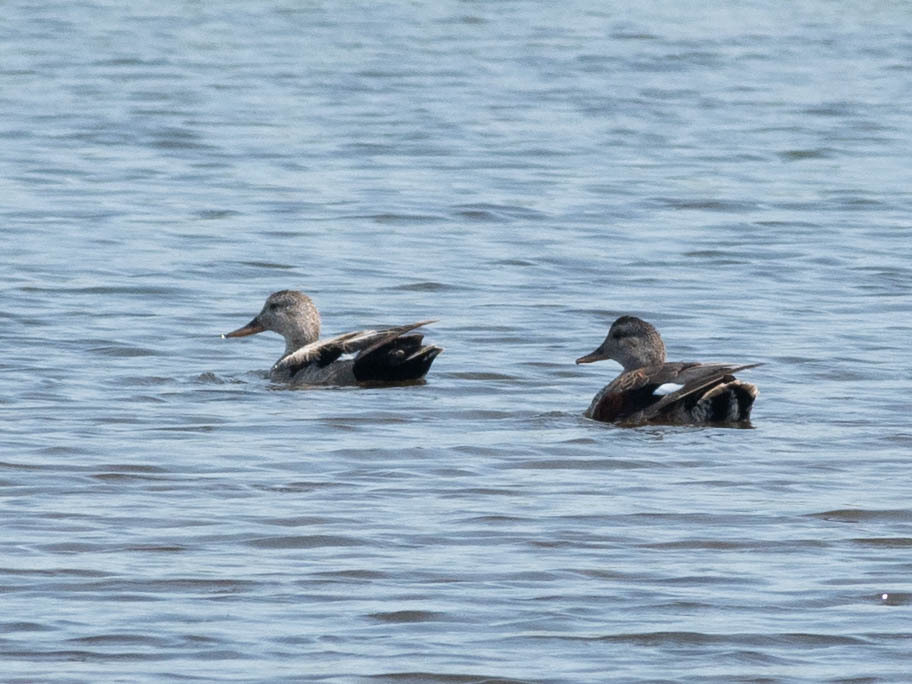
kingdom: Animalia
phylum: Chordata
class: Aves
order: Anseriformes
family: Anatidae
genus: Mareca
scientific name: Mareca strepera
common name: Gadwall
